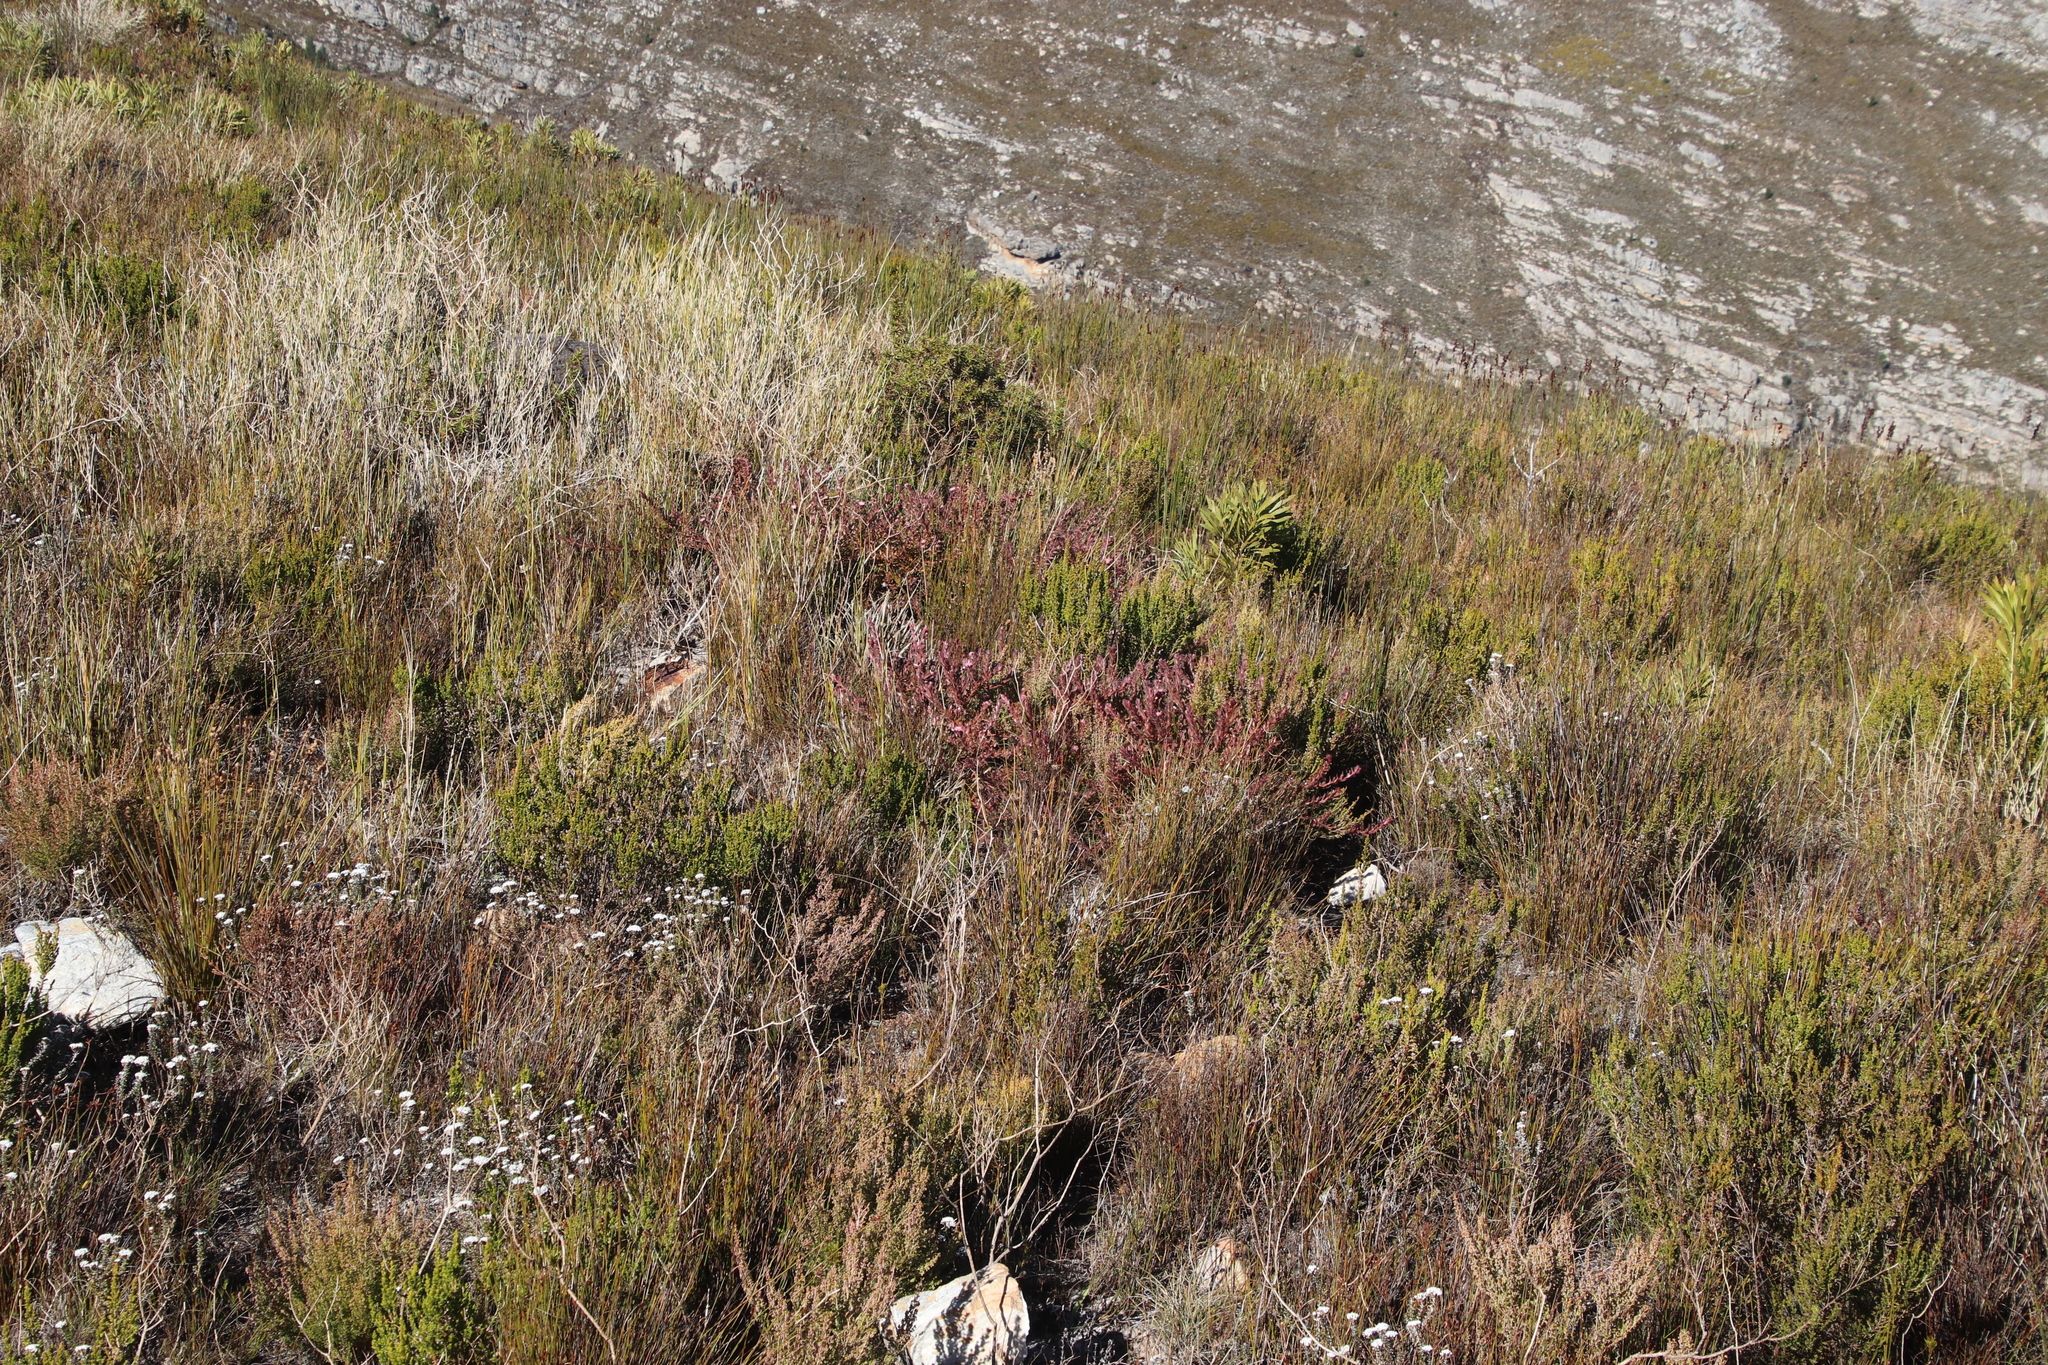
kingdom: Plantae
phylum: Tracheophyta
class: Magnoliopsida
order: Proteales
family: Proteaceae
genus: Diastella
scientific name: Diastella divaricata
